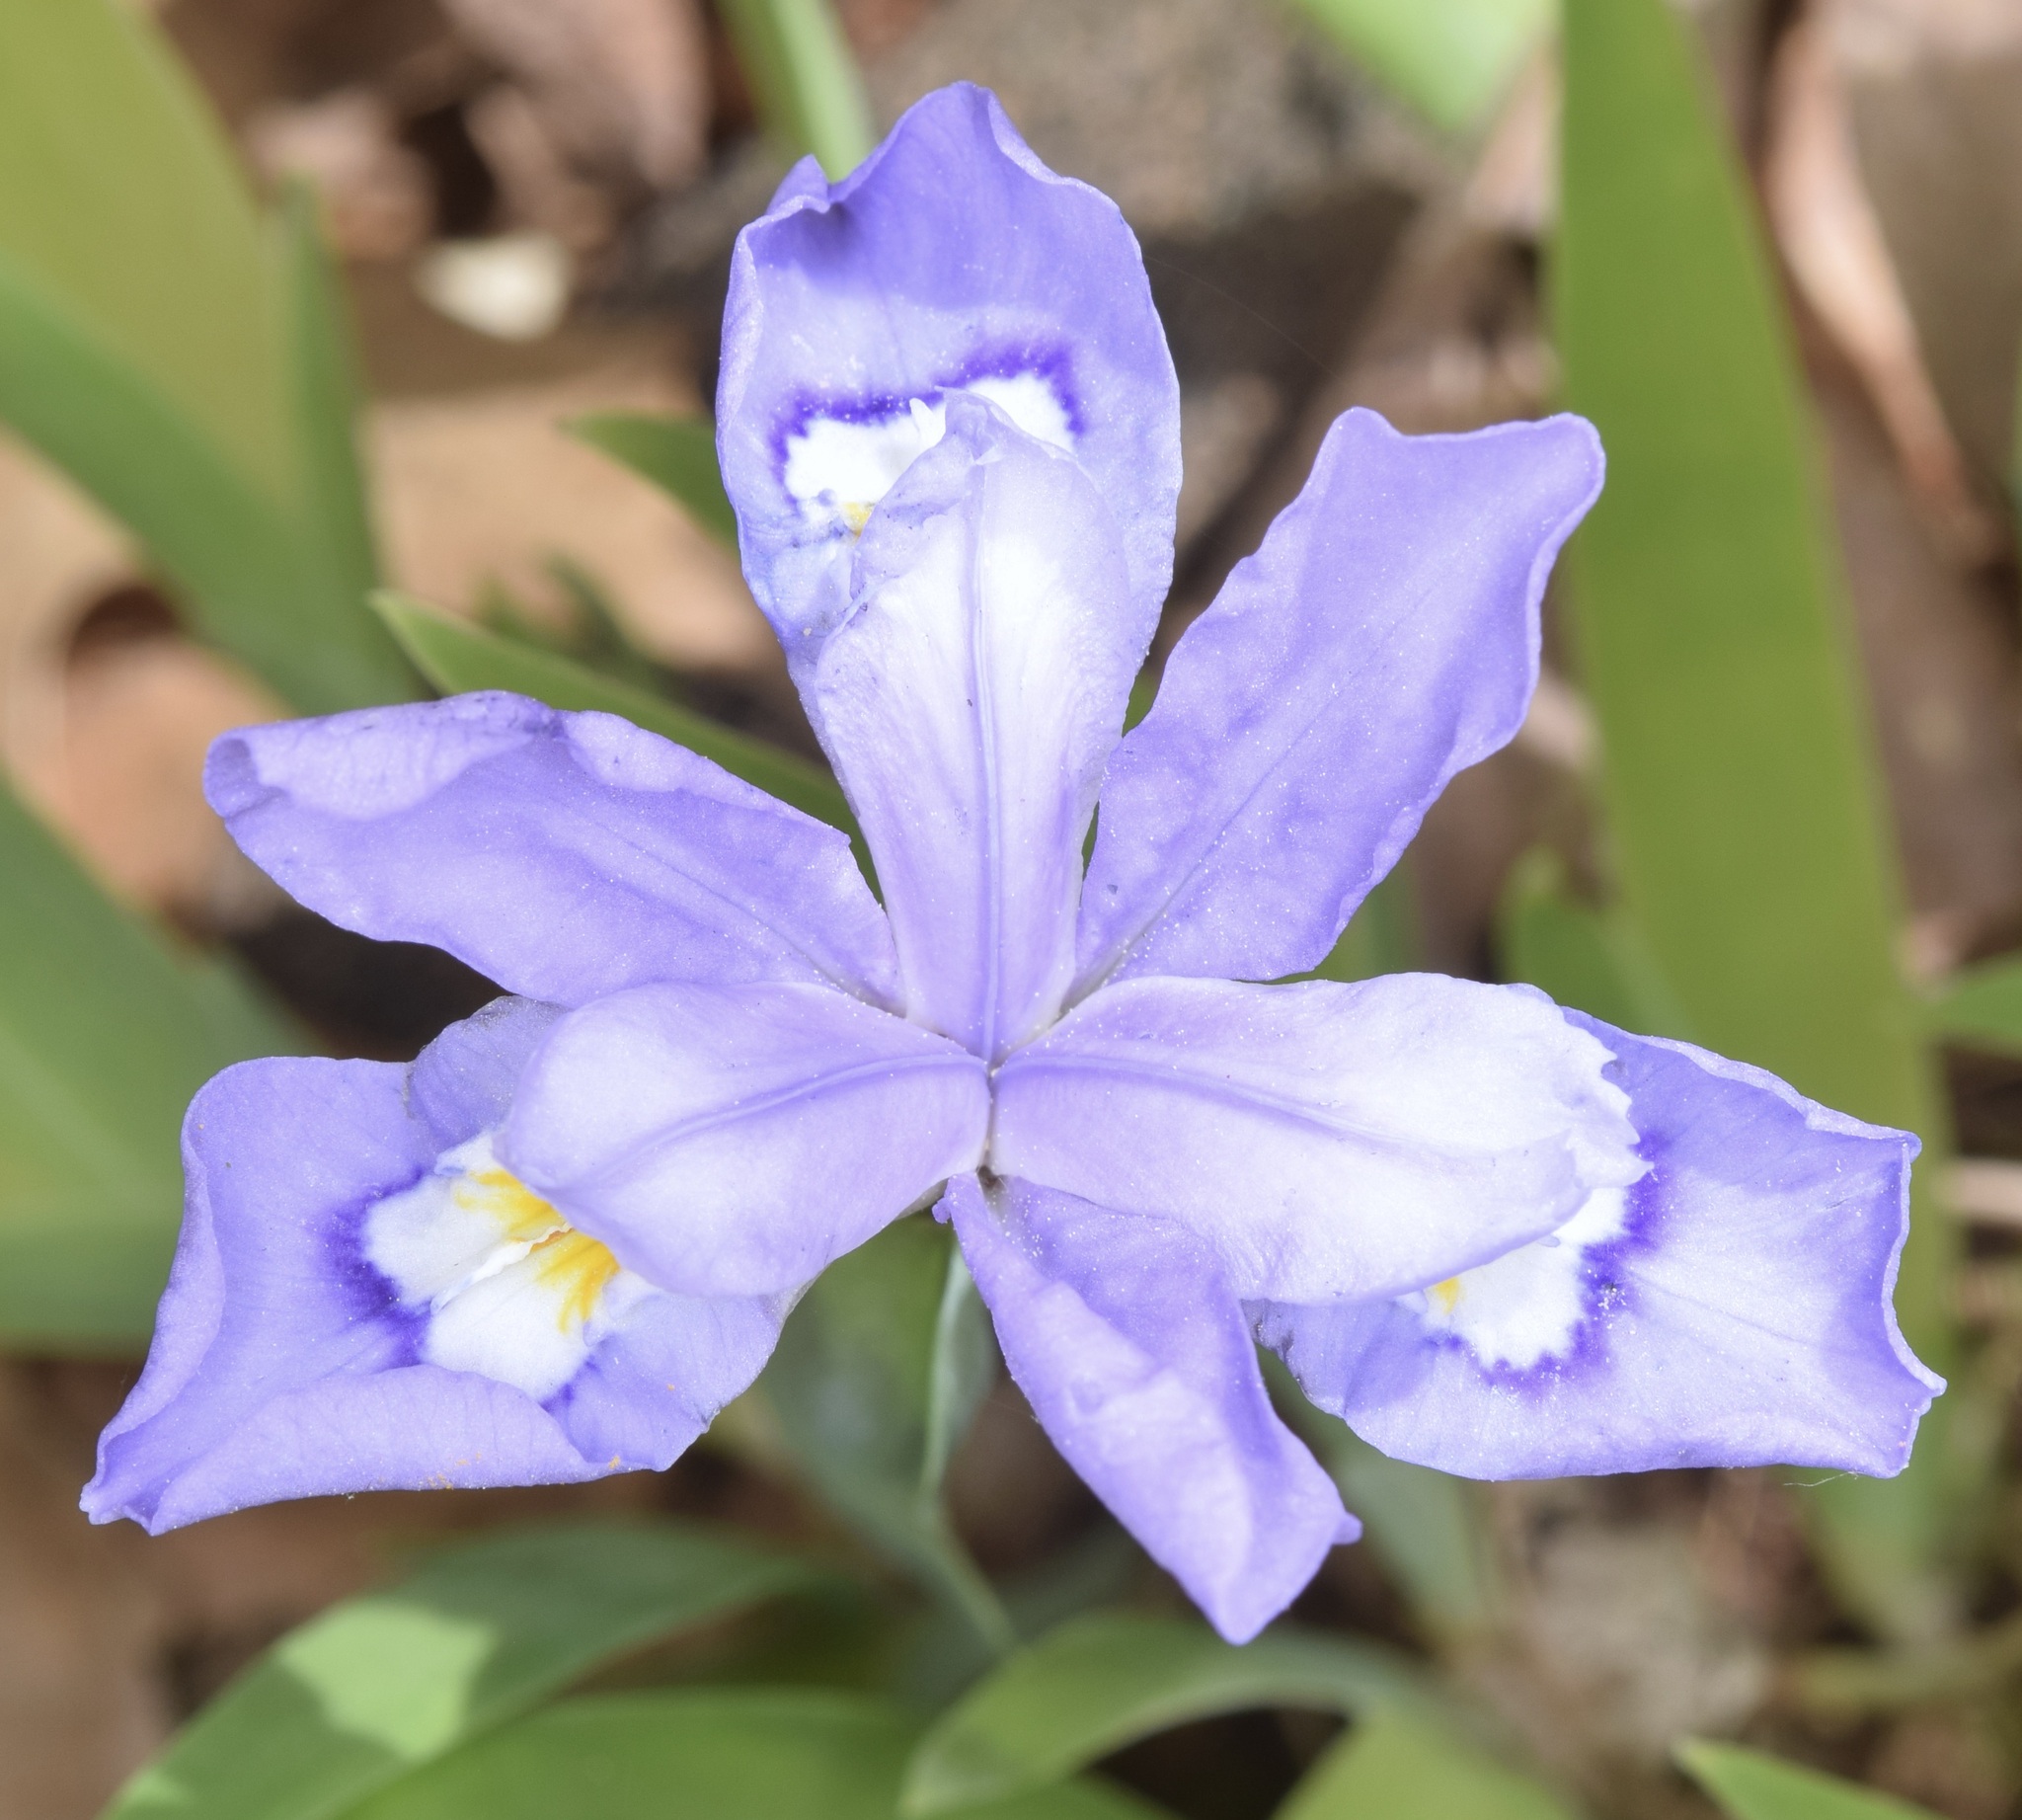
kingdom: Plantae
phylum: Tracheophyta
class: Liliopsida
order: Asparagales
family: Iridaceae
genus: Iris
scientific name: Iris cristata
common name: Crested iris
